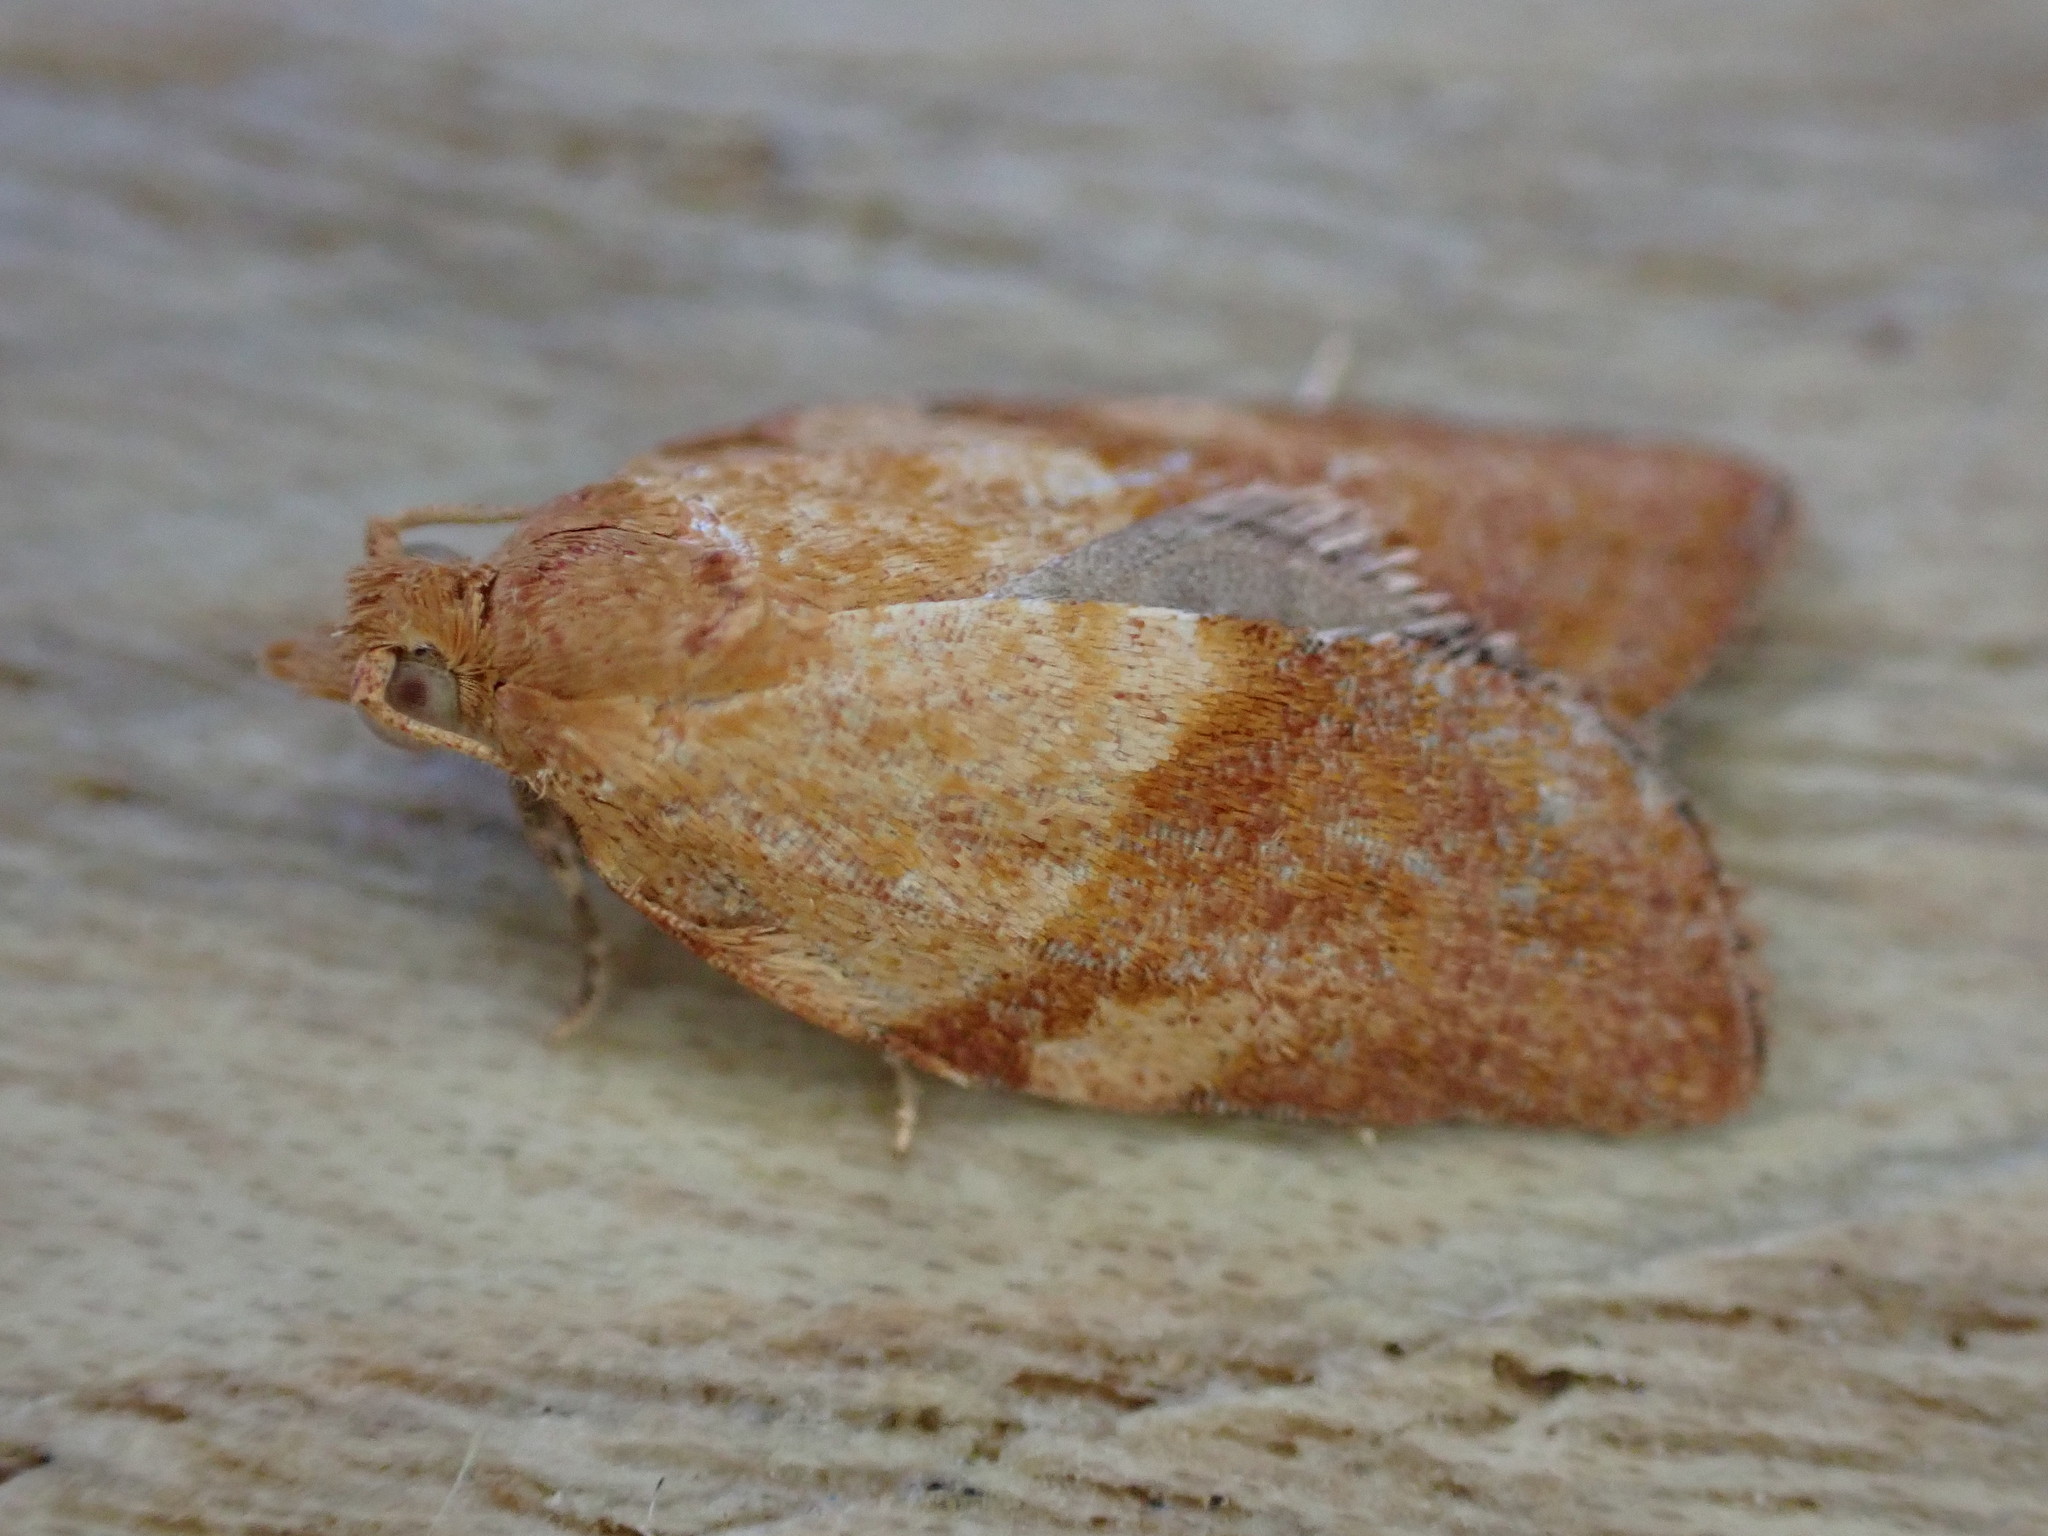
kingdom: Animalia
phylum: Arthropoda
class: Insecta
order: Lepidoptera
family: Tortricidae
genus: Epiphyas
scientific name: Epiphyas postvittana
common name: Light brown apple moth
